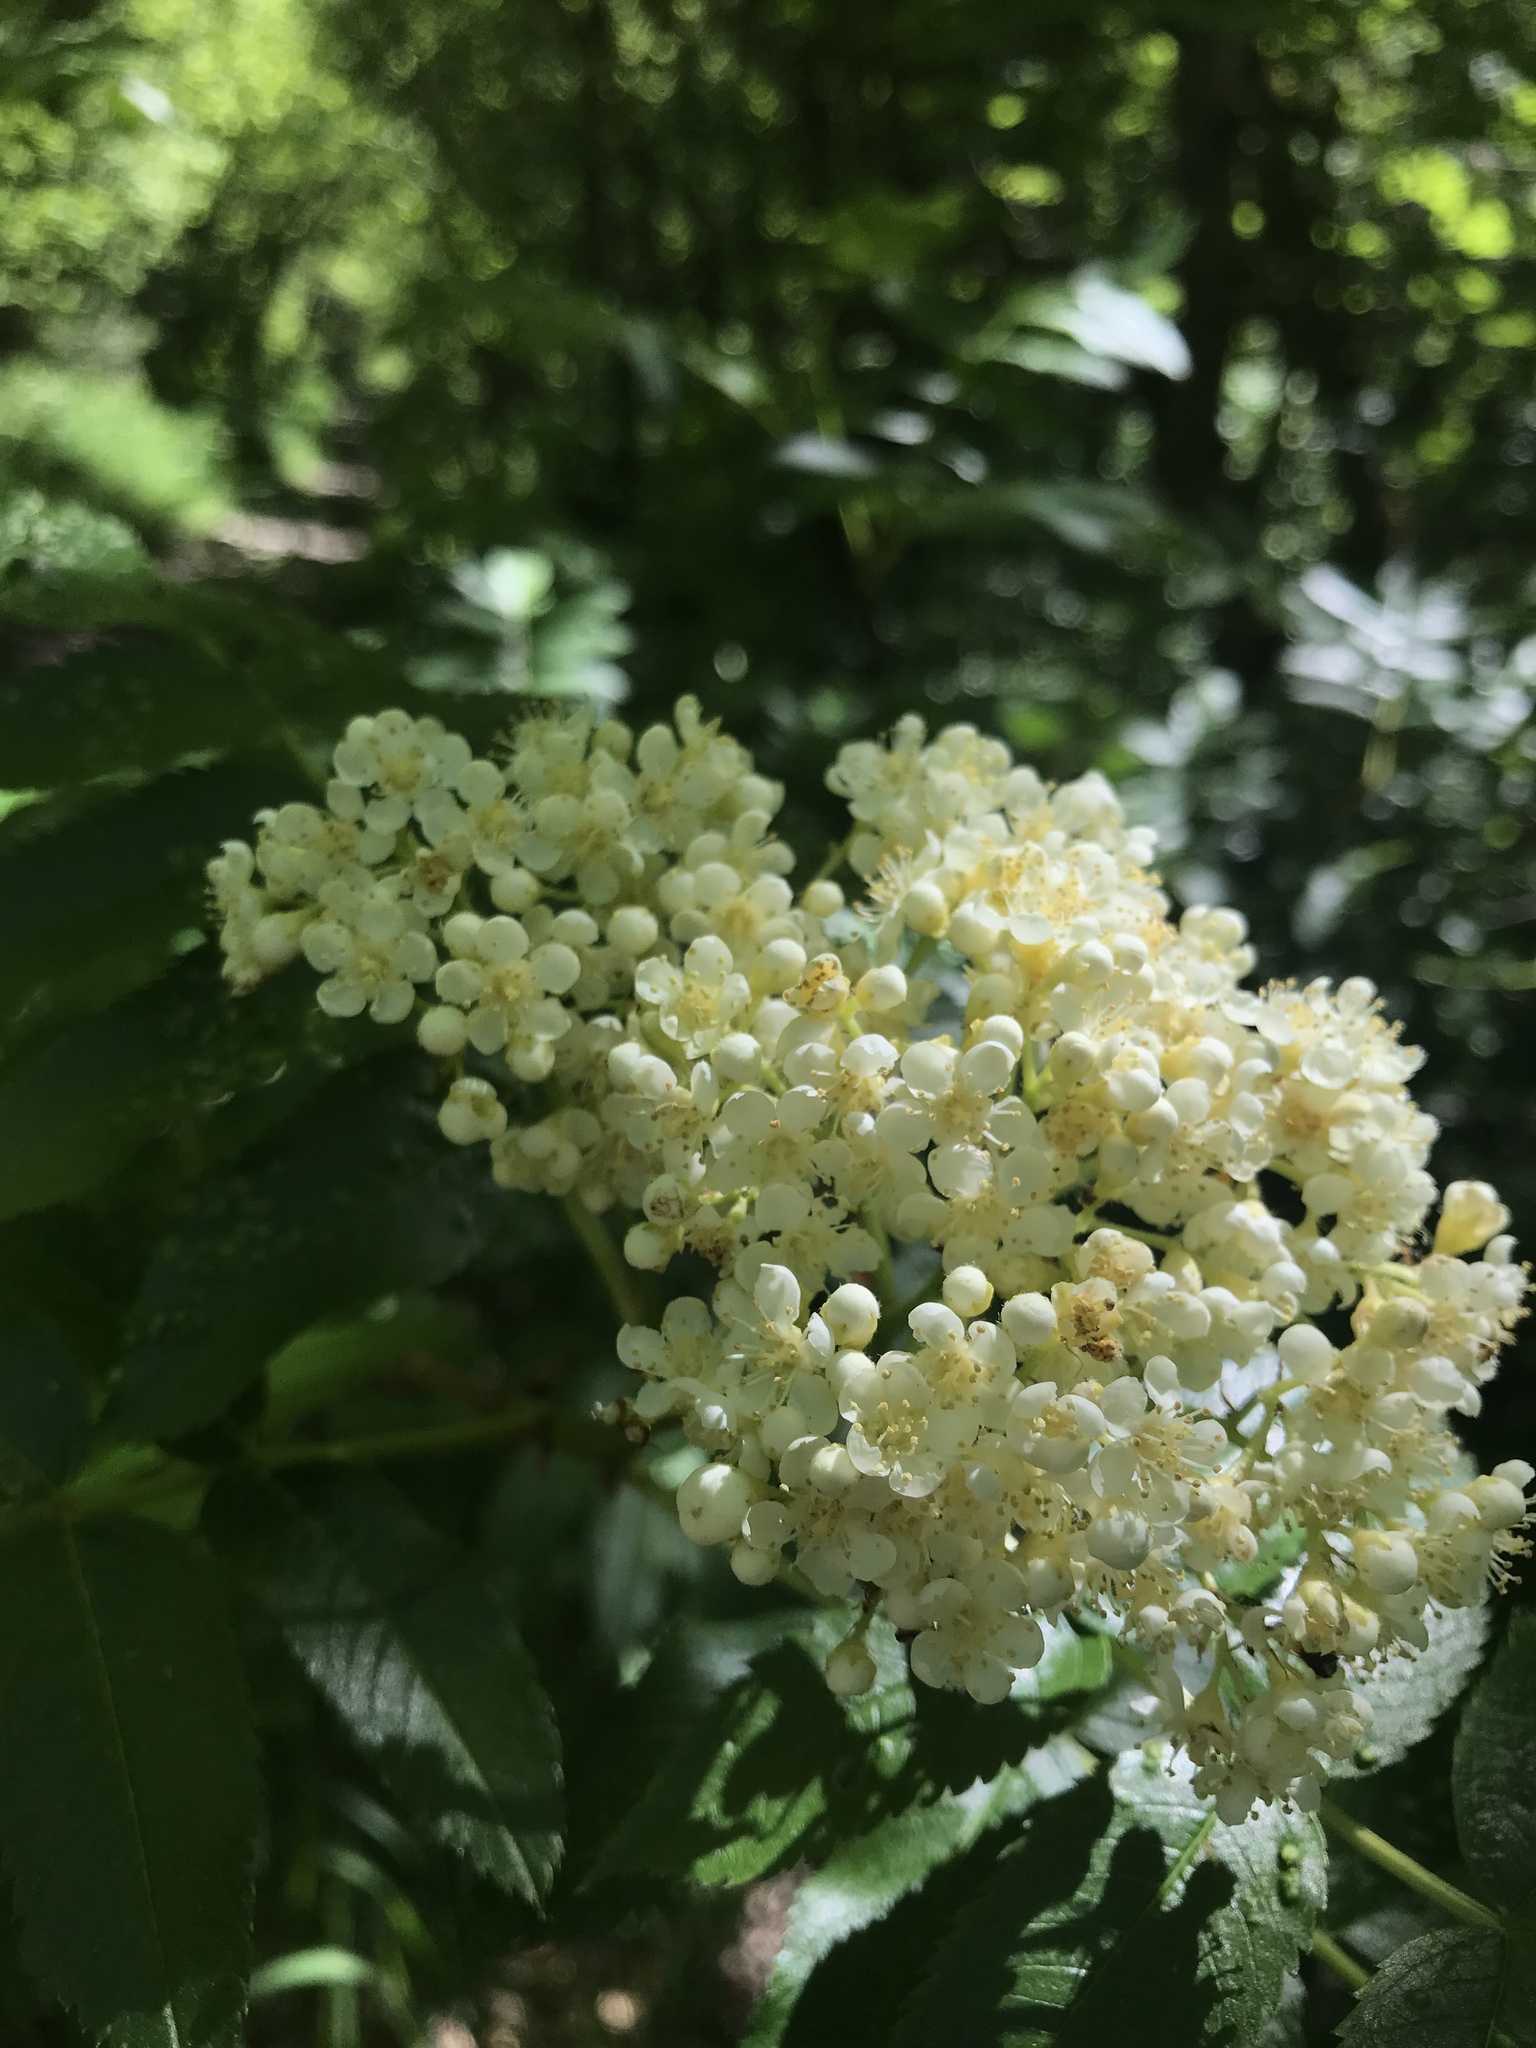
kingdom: Plantae
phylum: Tracheophyta
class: Magnoliopsida
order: Dipsacales
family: Viburnaceae
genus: Sambucus
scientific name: Sambucus cerulea
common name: Blue elder
